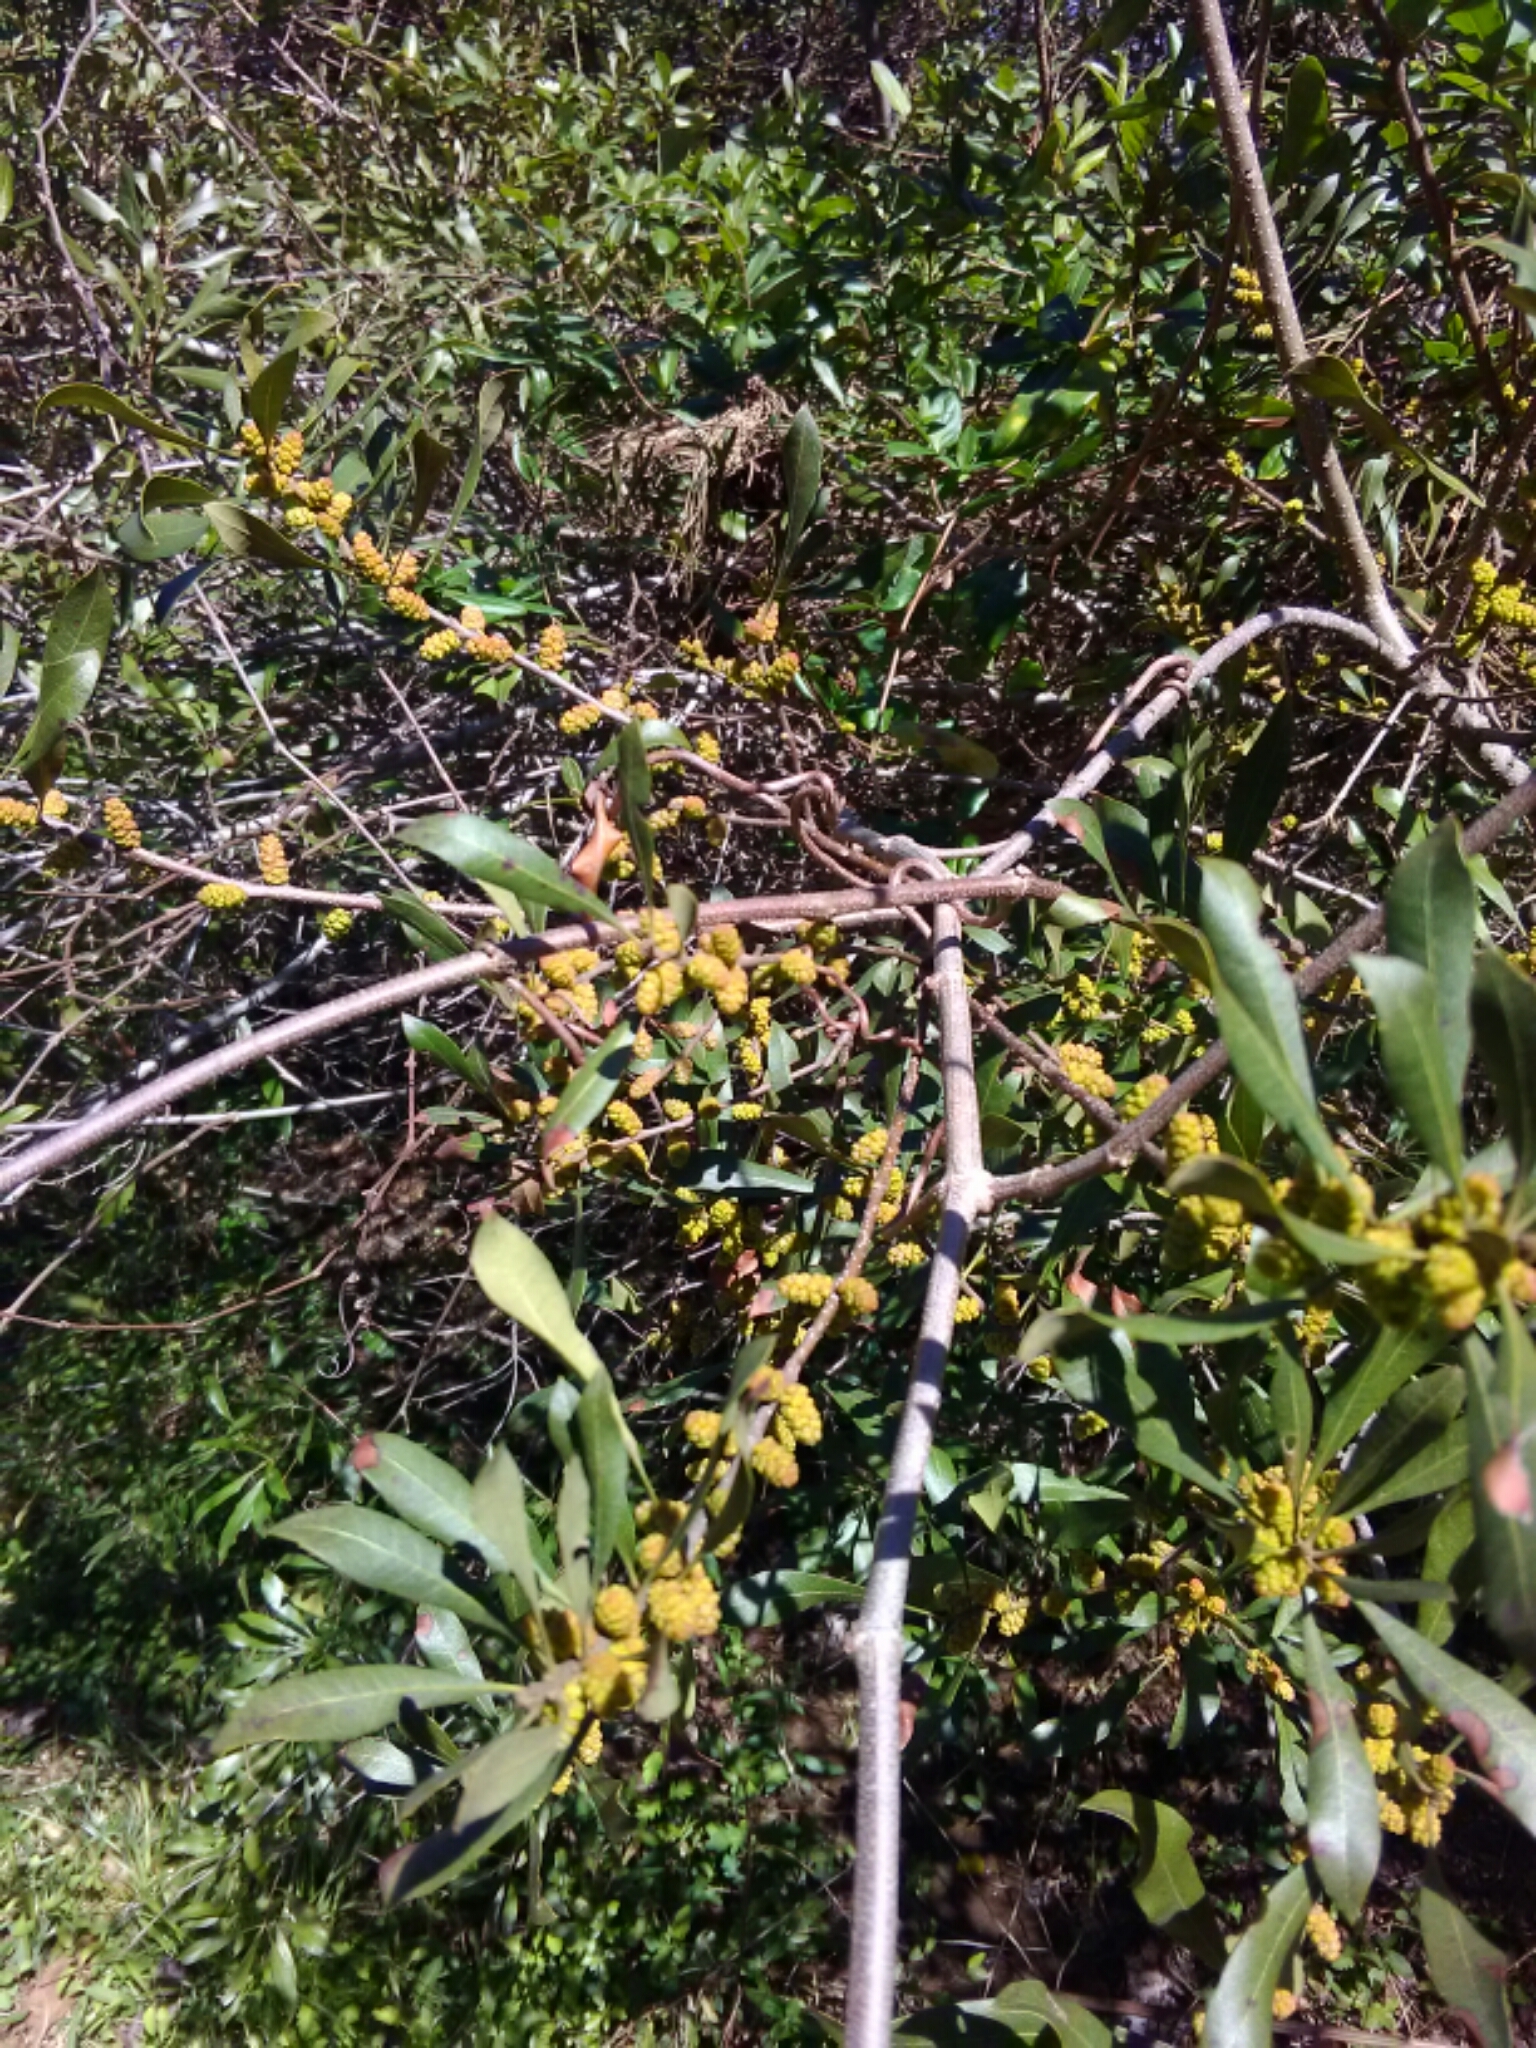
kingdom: Plantae
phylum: Tracheophyta
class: Magnoliopsida
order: Fagales
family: Myricaceae
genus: Morella
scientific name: Morella cerifera
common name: Wax myrtle
